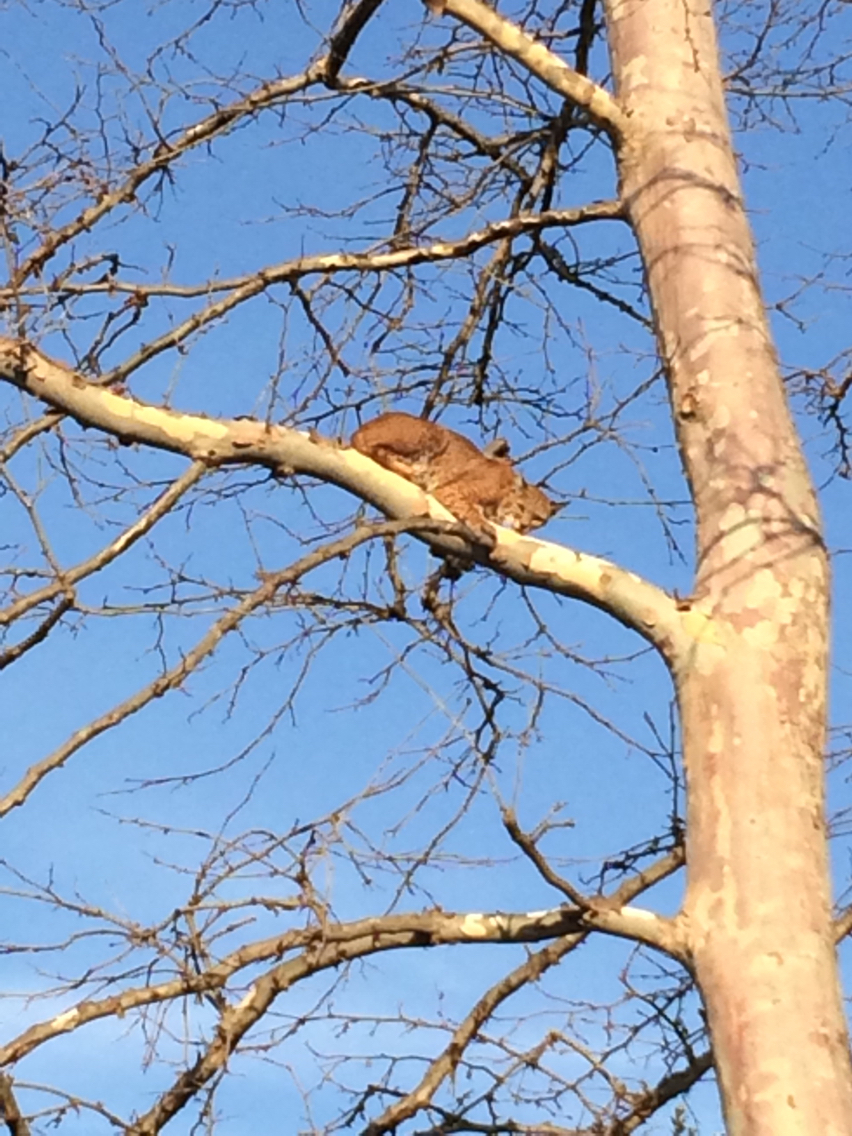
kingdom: Animalia
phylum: Chordata
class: Mammalia
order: Carnivora
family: Felidae
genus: Lynx
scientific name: Lynx rufus
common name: Bobcat
